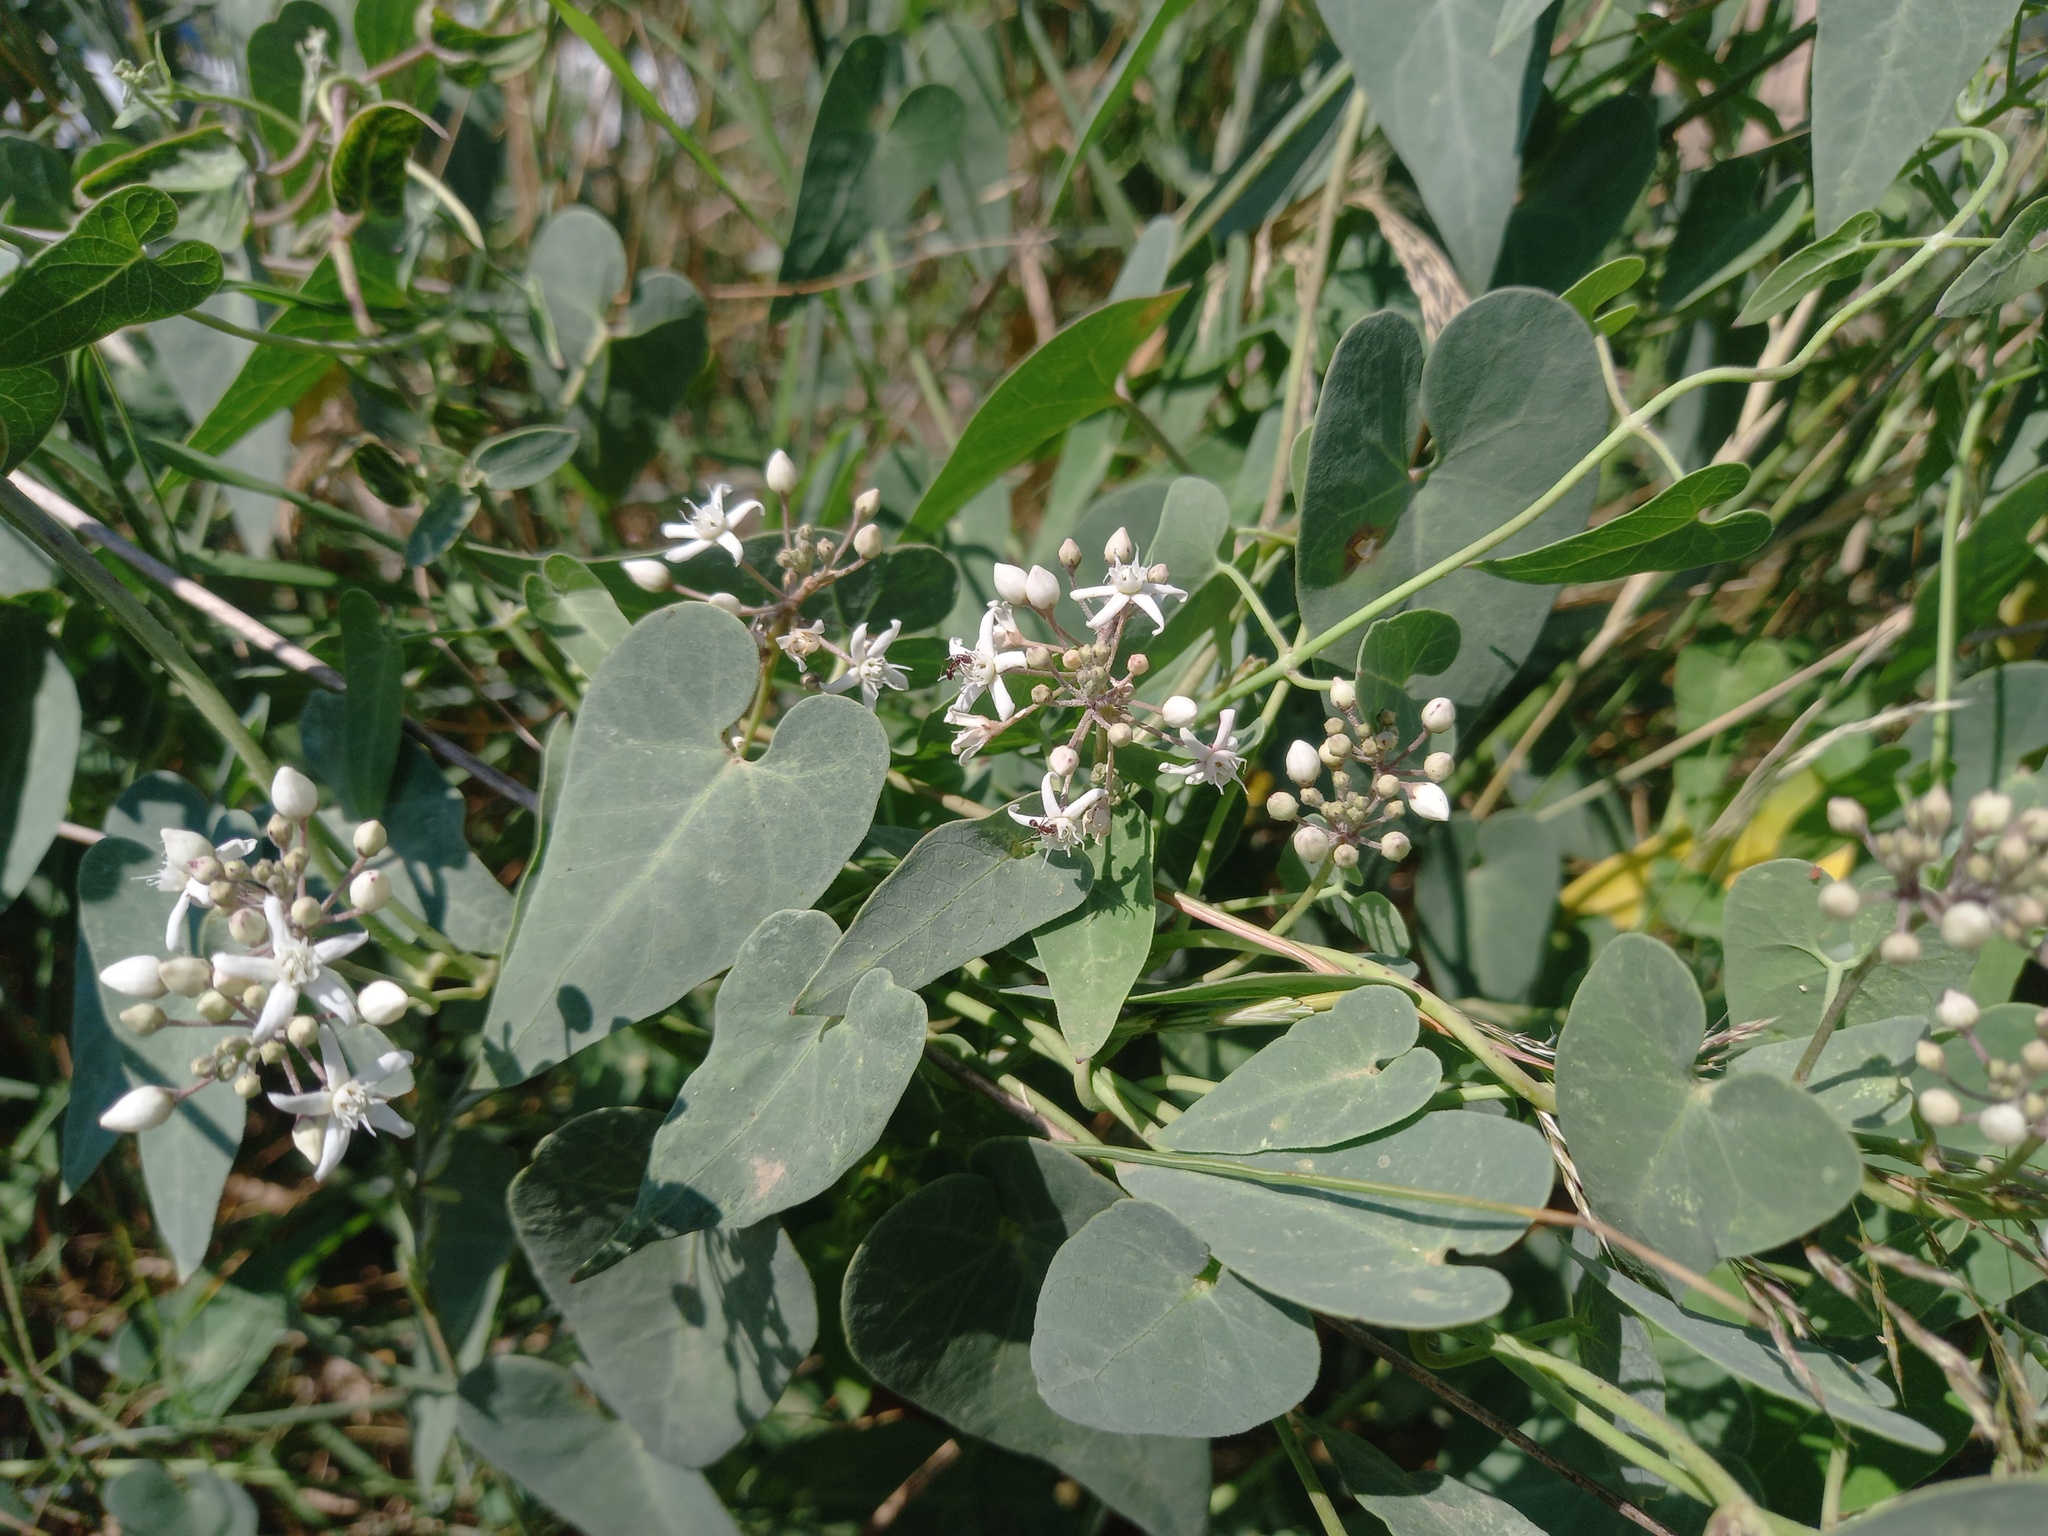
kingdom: Plantae
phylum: Tracheophyta
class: Magnoliopsida
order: Gentianales
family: Apocynaceae
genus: Cynanchum
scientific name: Cynanchum acutum
